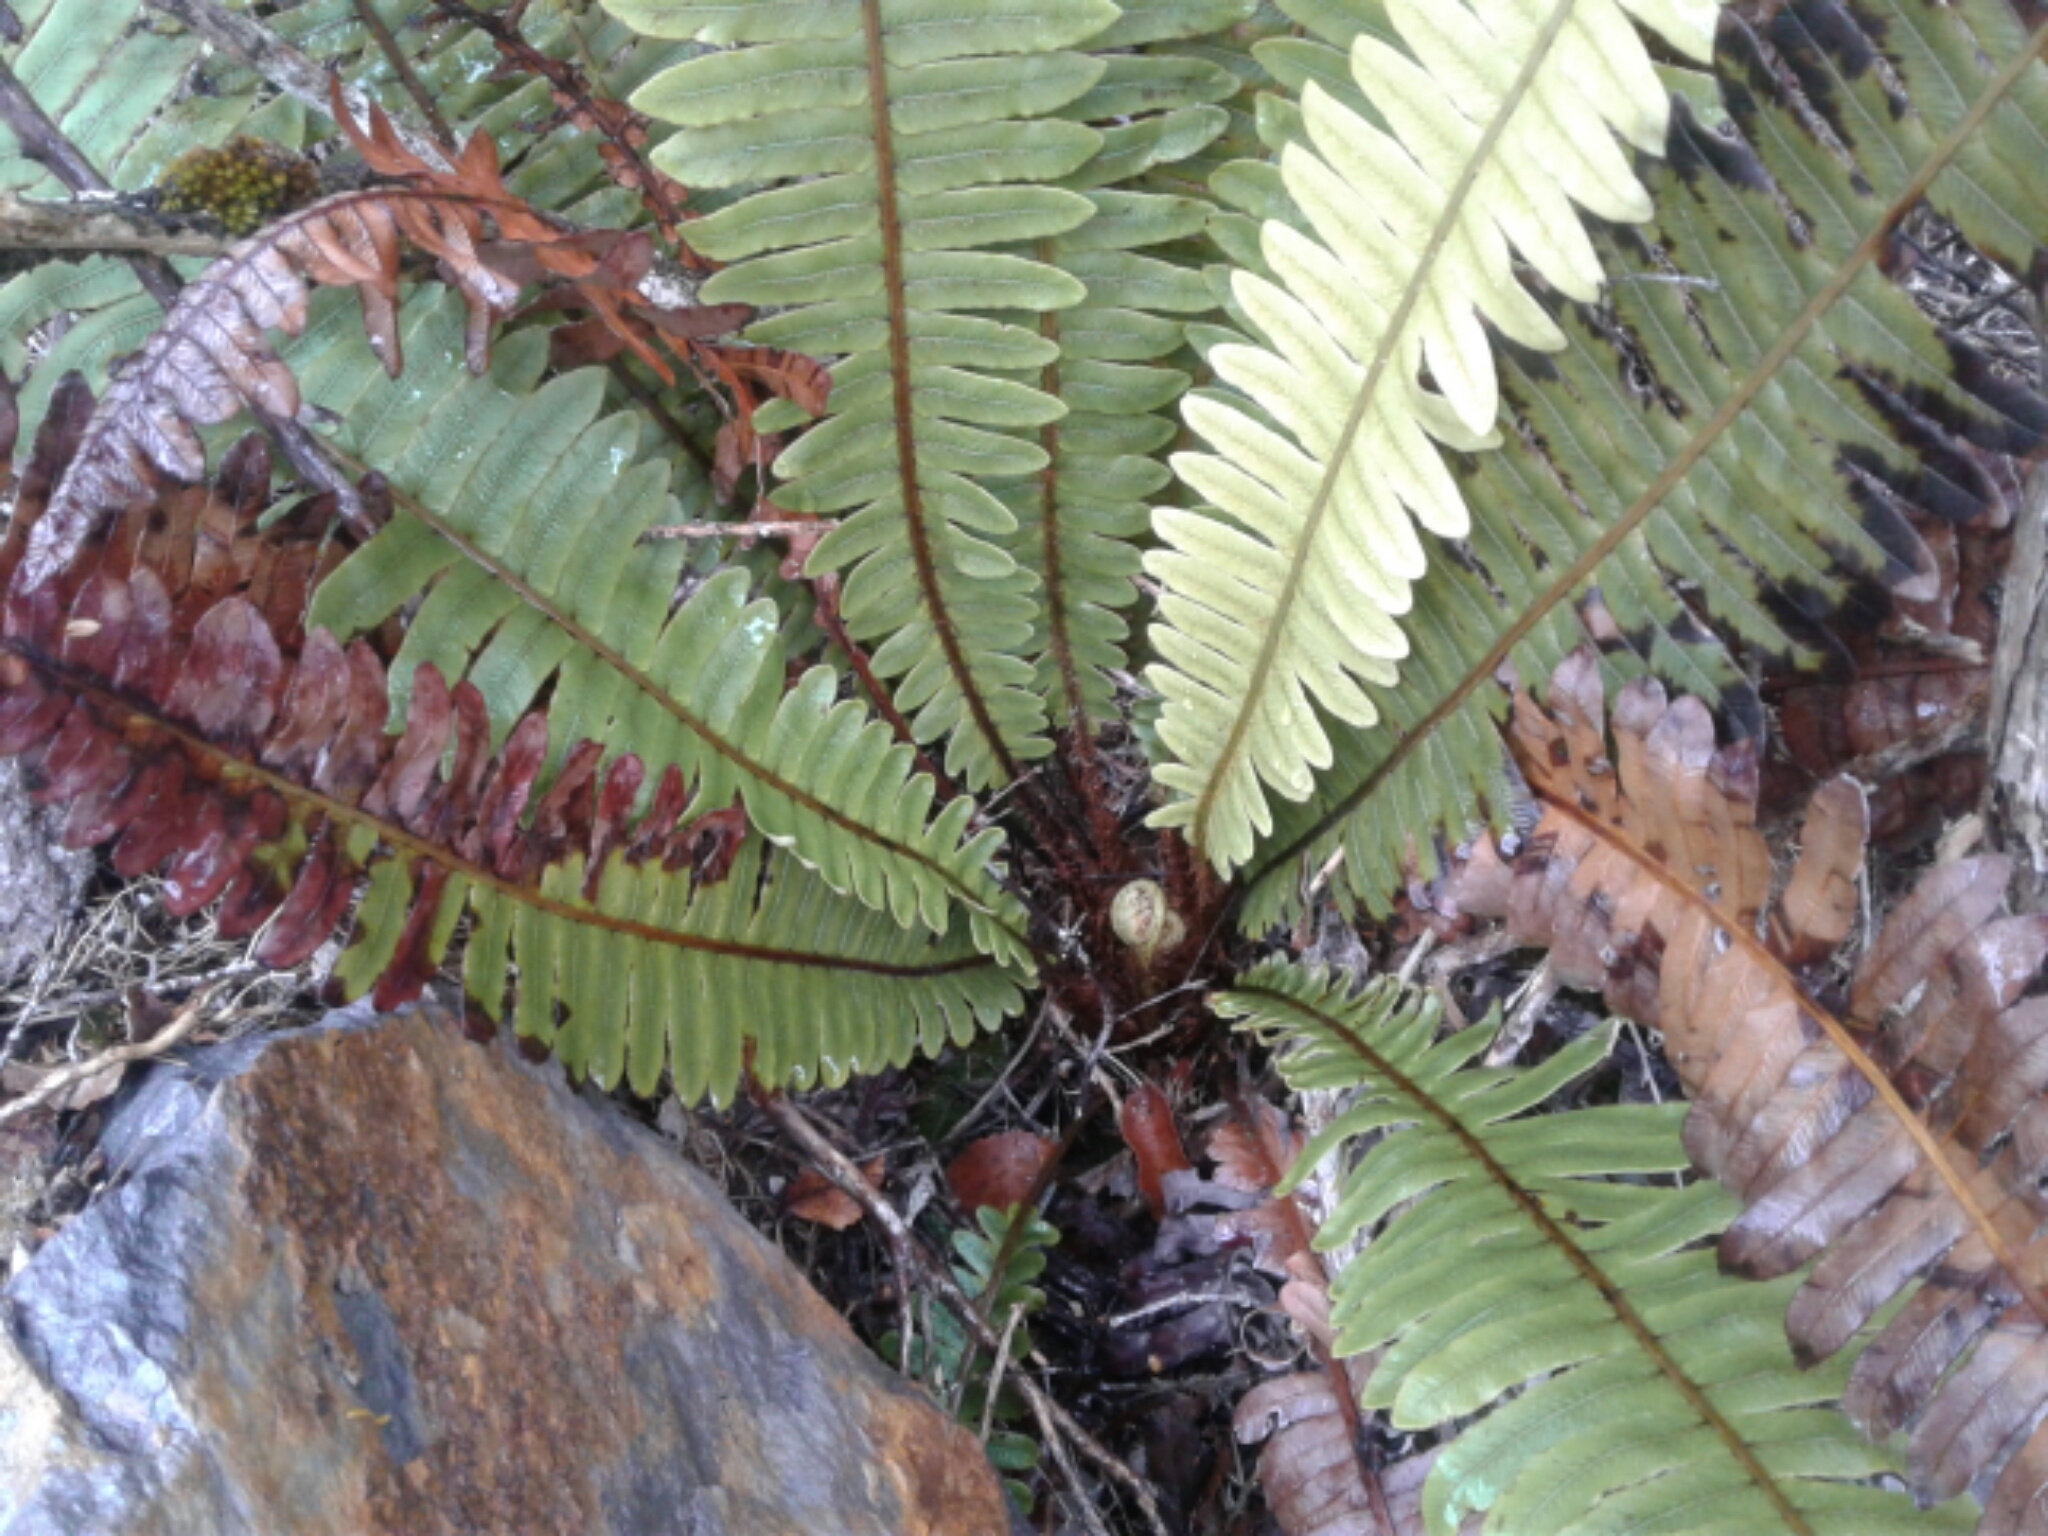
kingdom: Plantae
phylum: Tracheophyta
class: Polypodiopsida
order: Polypodiales
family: Blechnaceae
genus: Lomaria
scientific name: Lomaria discolor
